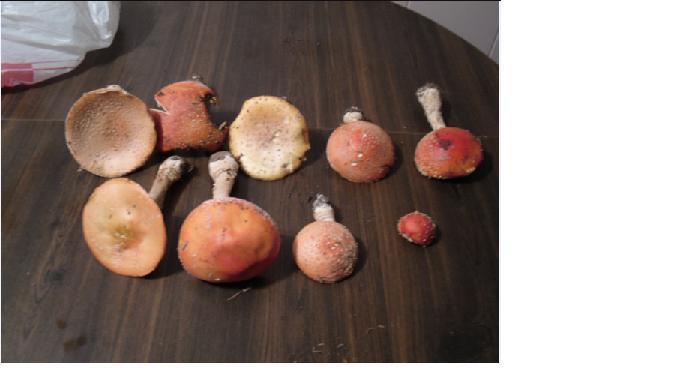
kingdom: Fungi
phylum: Basidiomycota
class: Agaricomycetes
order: Agaricales
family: Amanitaceae
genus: Amanita
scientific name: Amanita persicina
